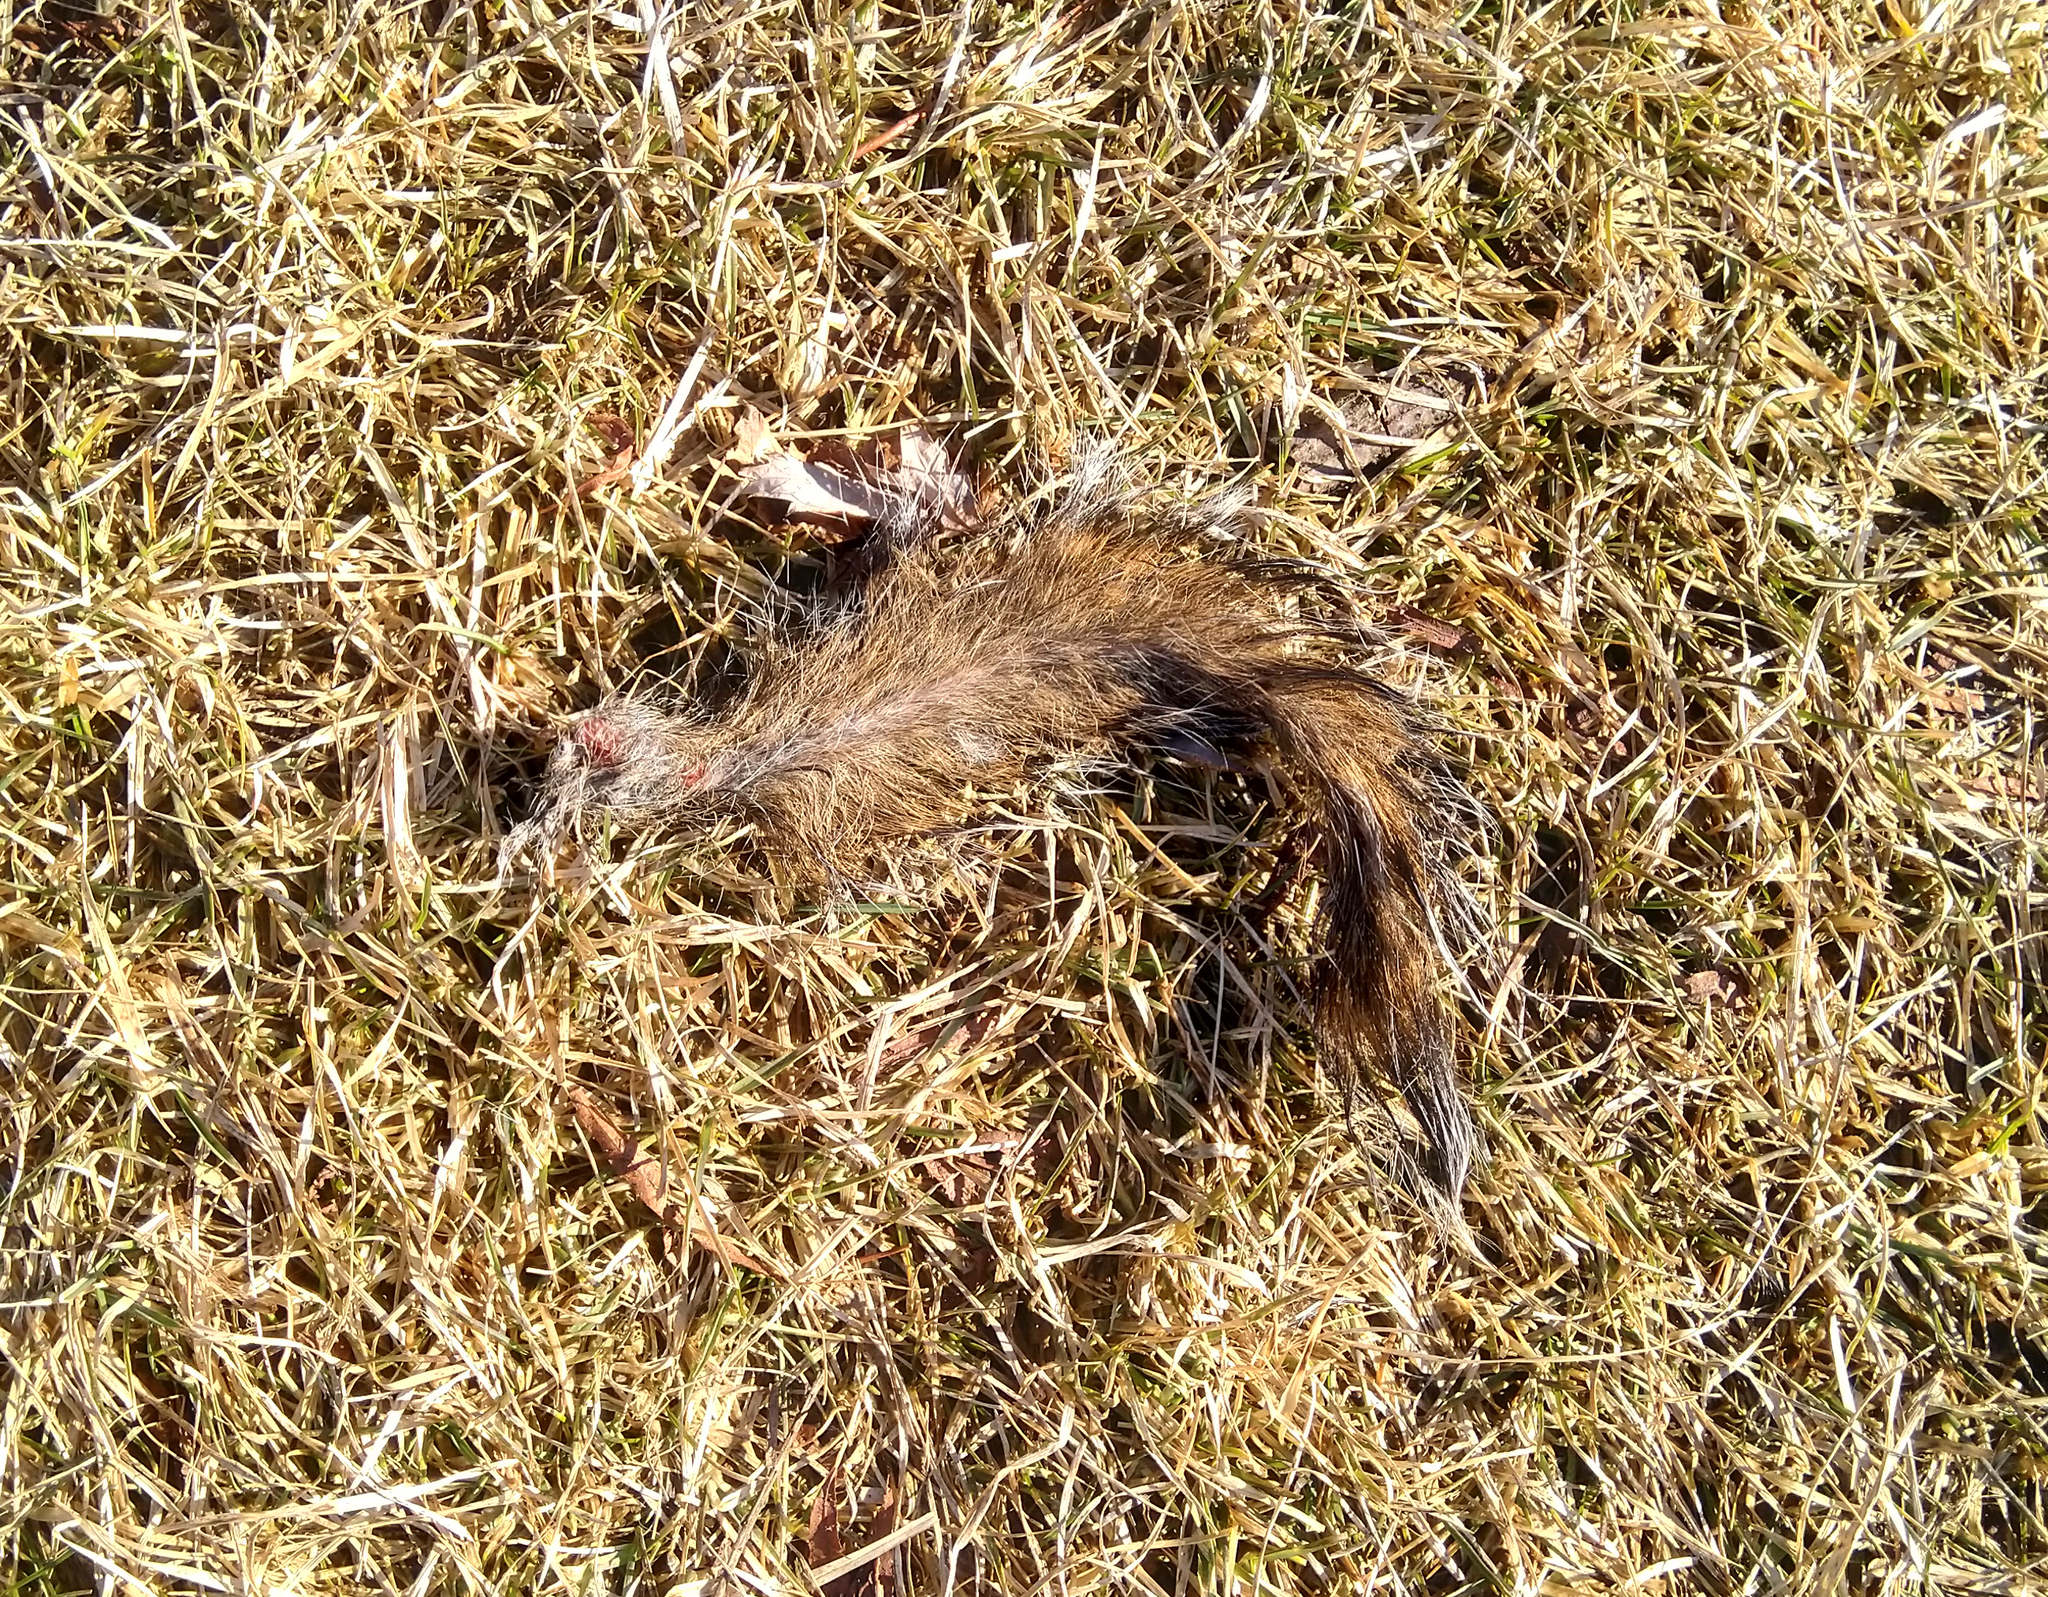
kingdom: Animalia
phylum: Chordata
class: Mammalia
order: Rodentia
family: Sciuridae
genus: Sciurus
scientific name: Sciurus carolinensis
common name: Eastern gray squirrel
